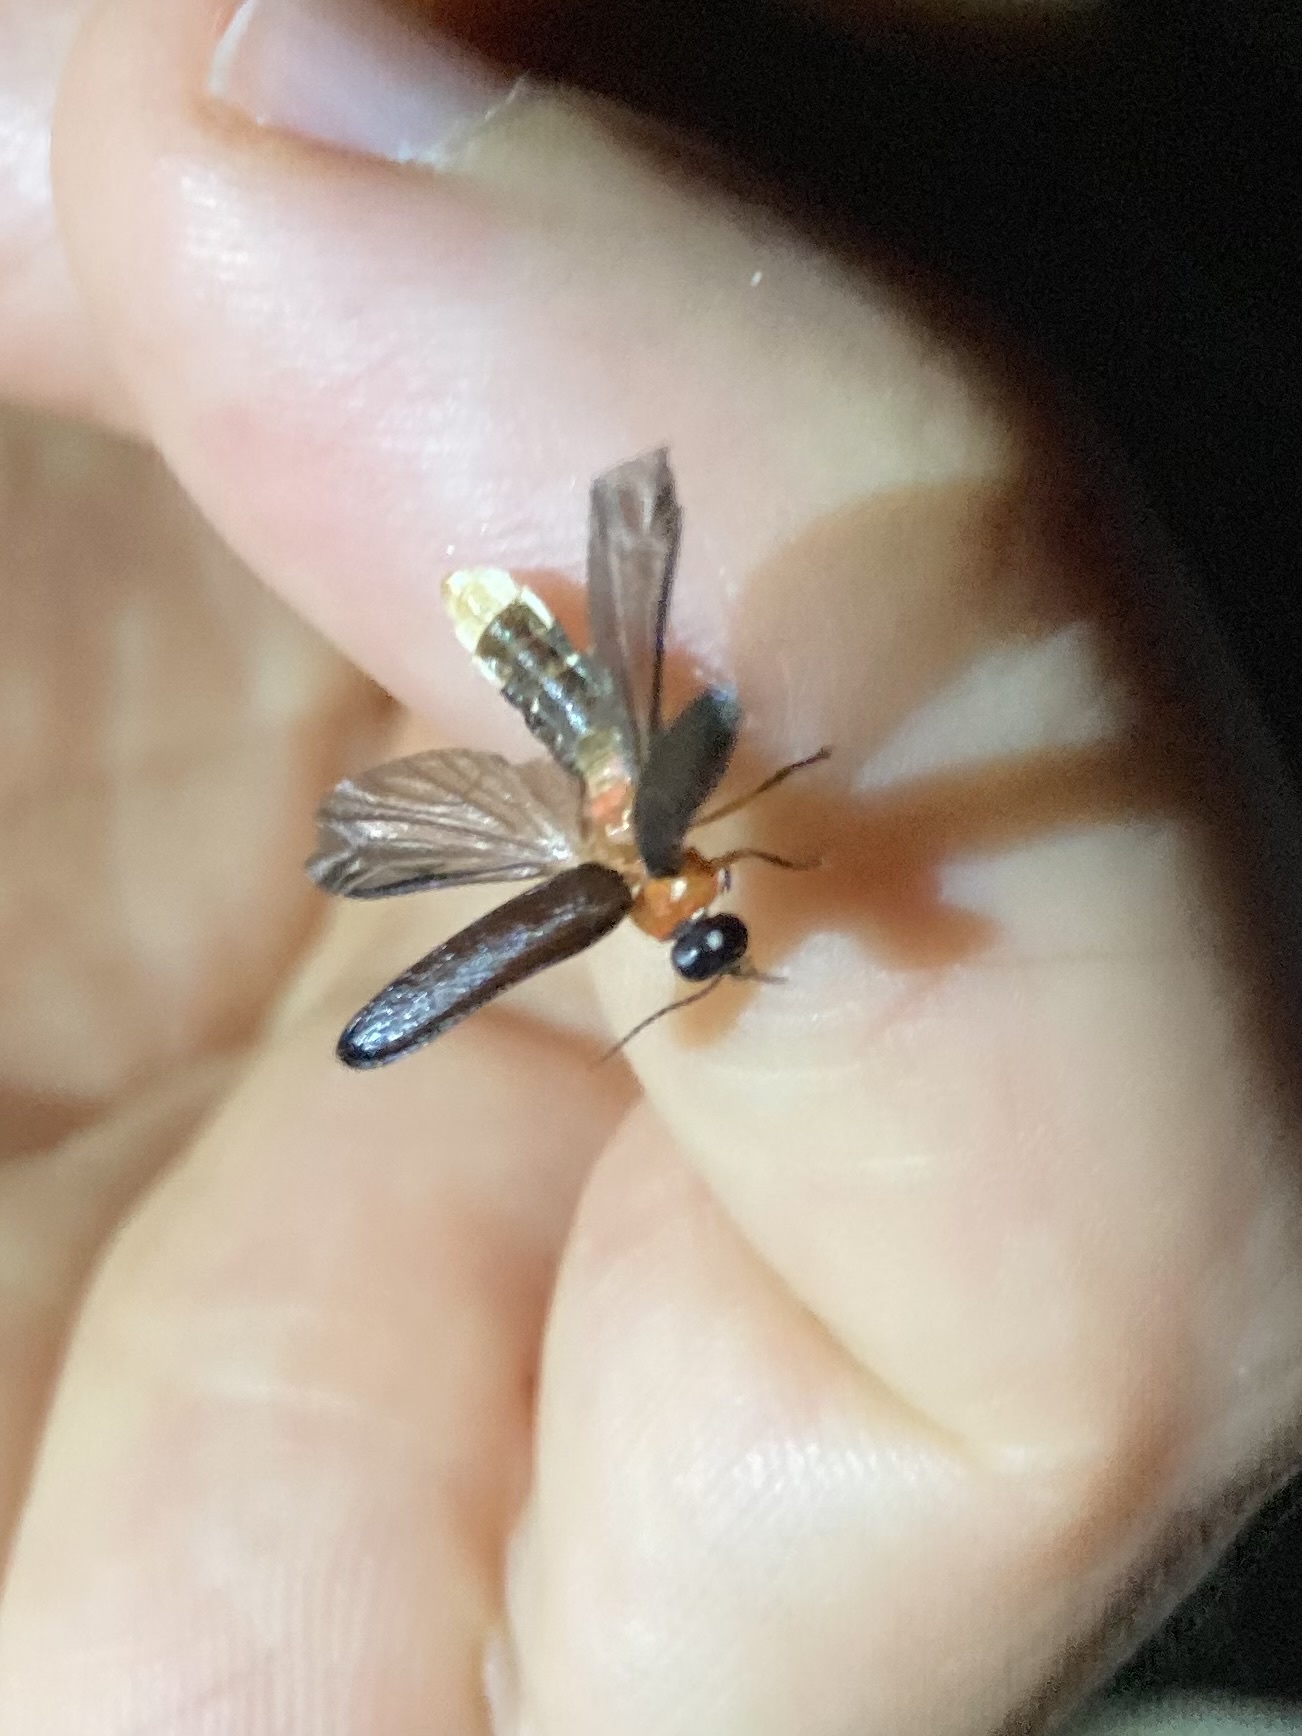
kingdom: Animalia
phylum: Arthropoda
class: Insecta
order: Coleoptera
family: Lampyridae
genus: Luciola
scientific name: Luciola lusitanica
